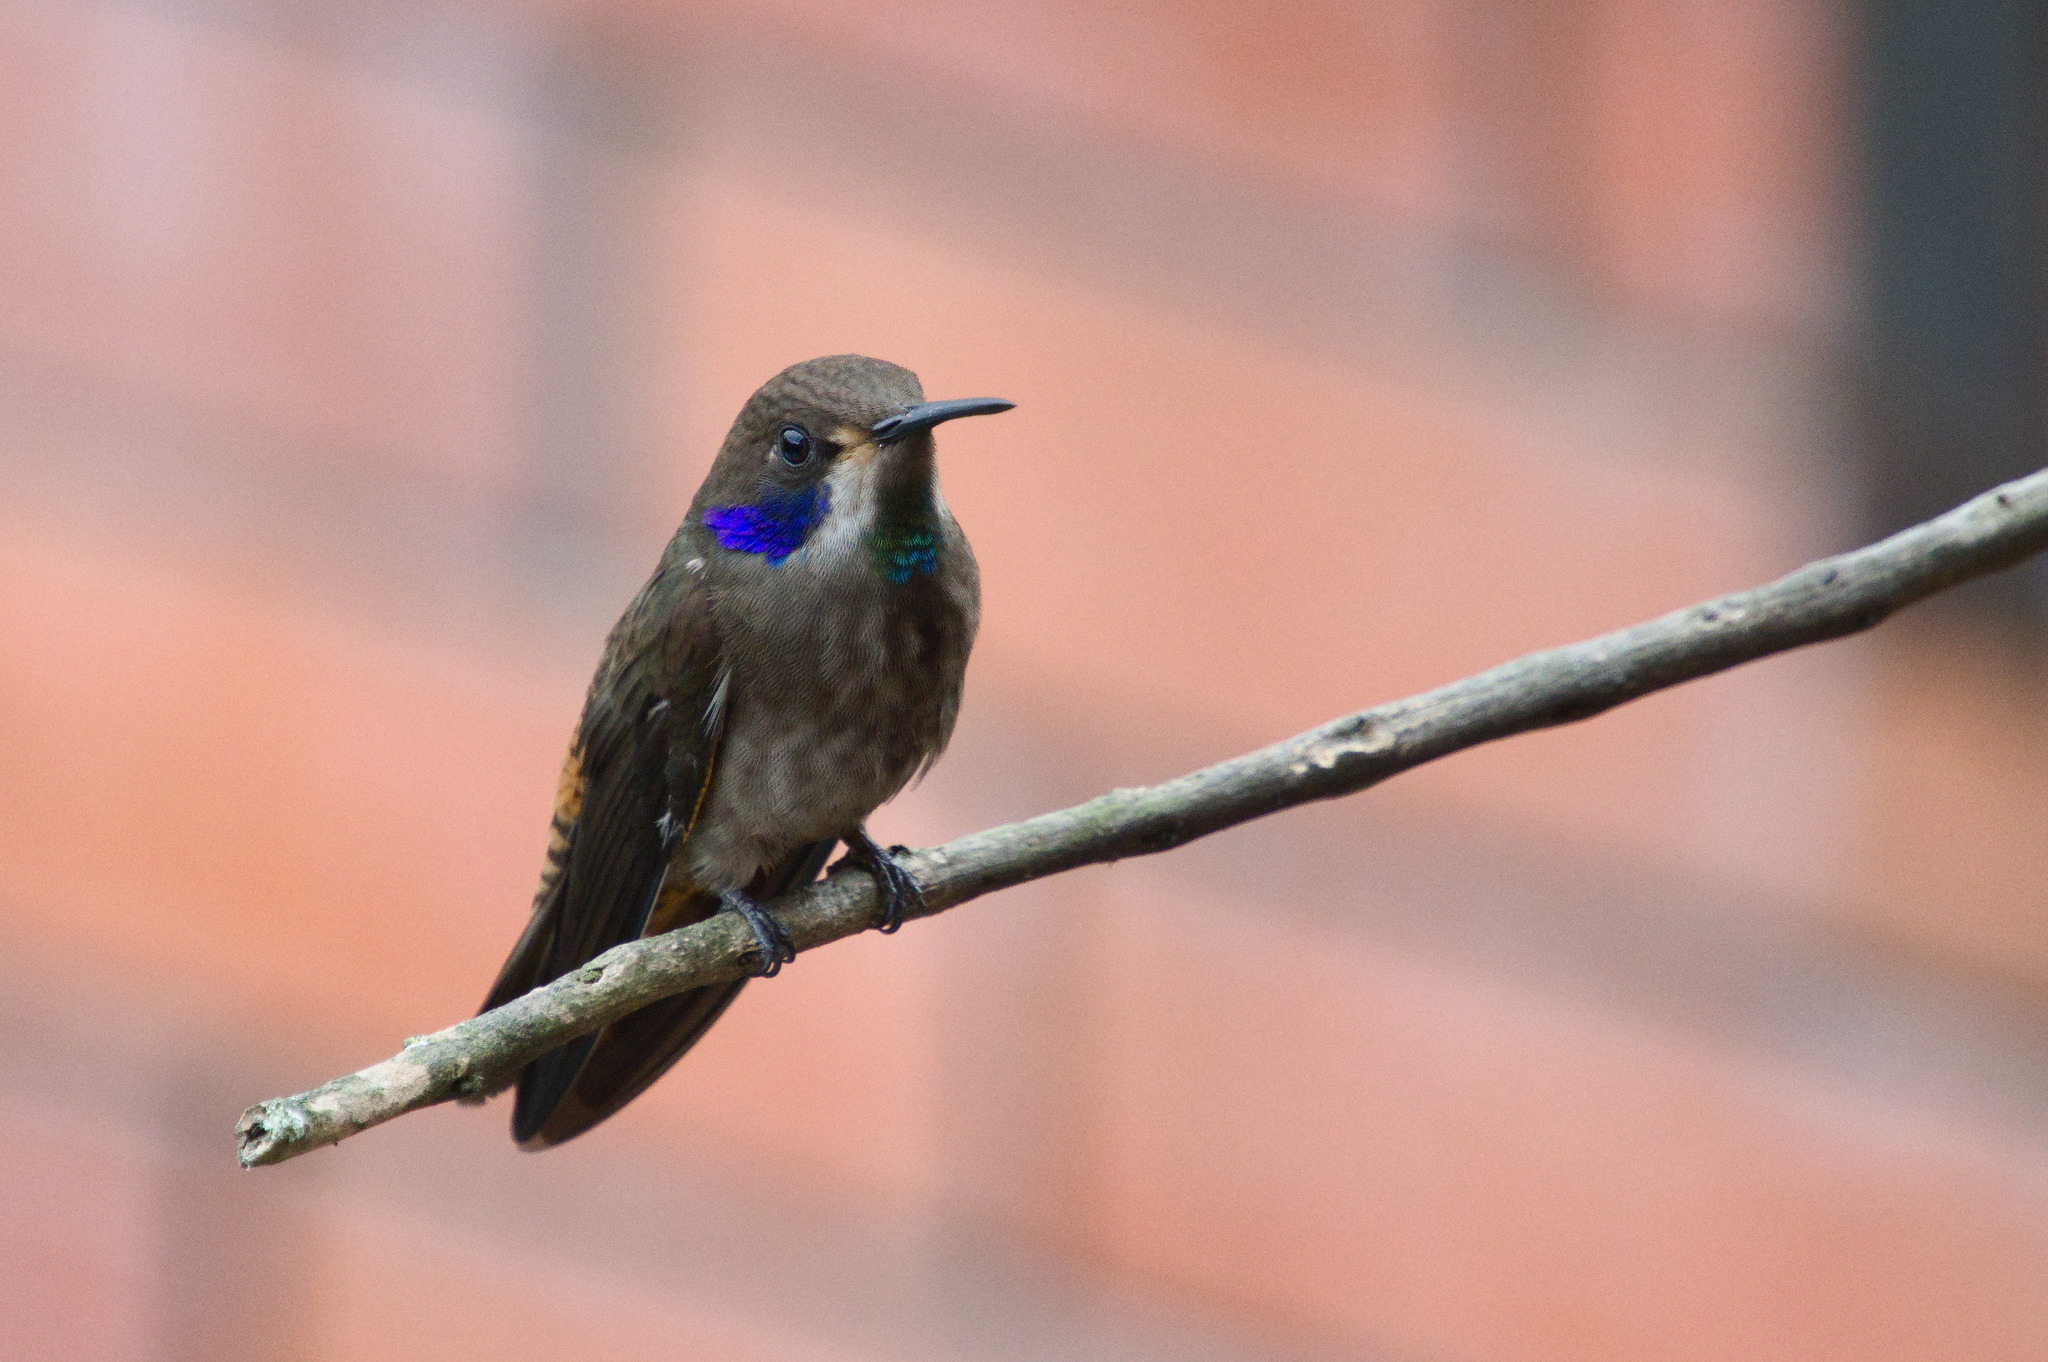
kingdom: Animalia
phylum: Chordata
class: Aves
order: Apodiformes
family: Trochilidae
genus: Colibri
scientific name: Colibri delphinae
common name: Brown violetear
